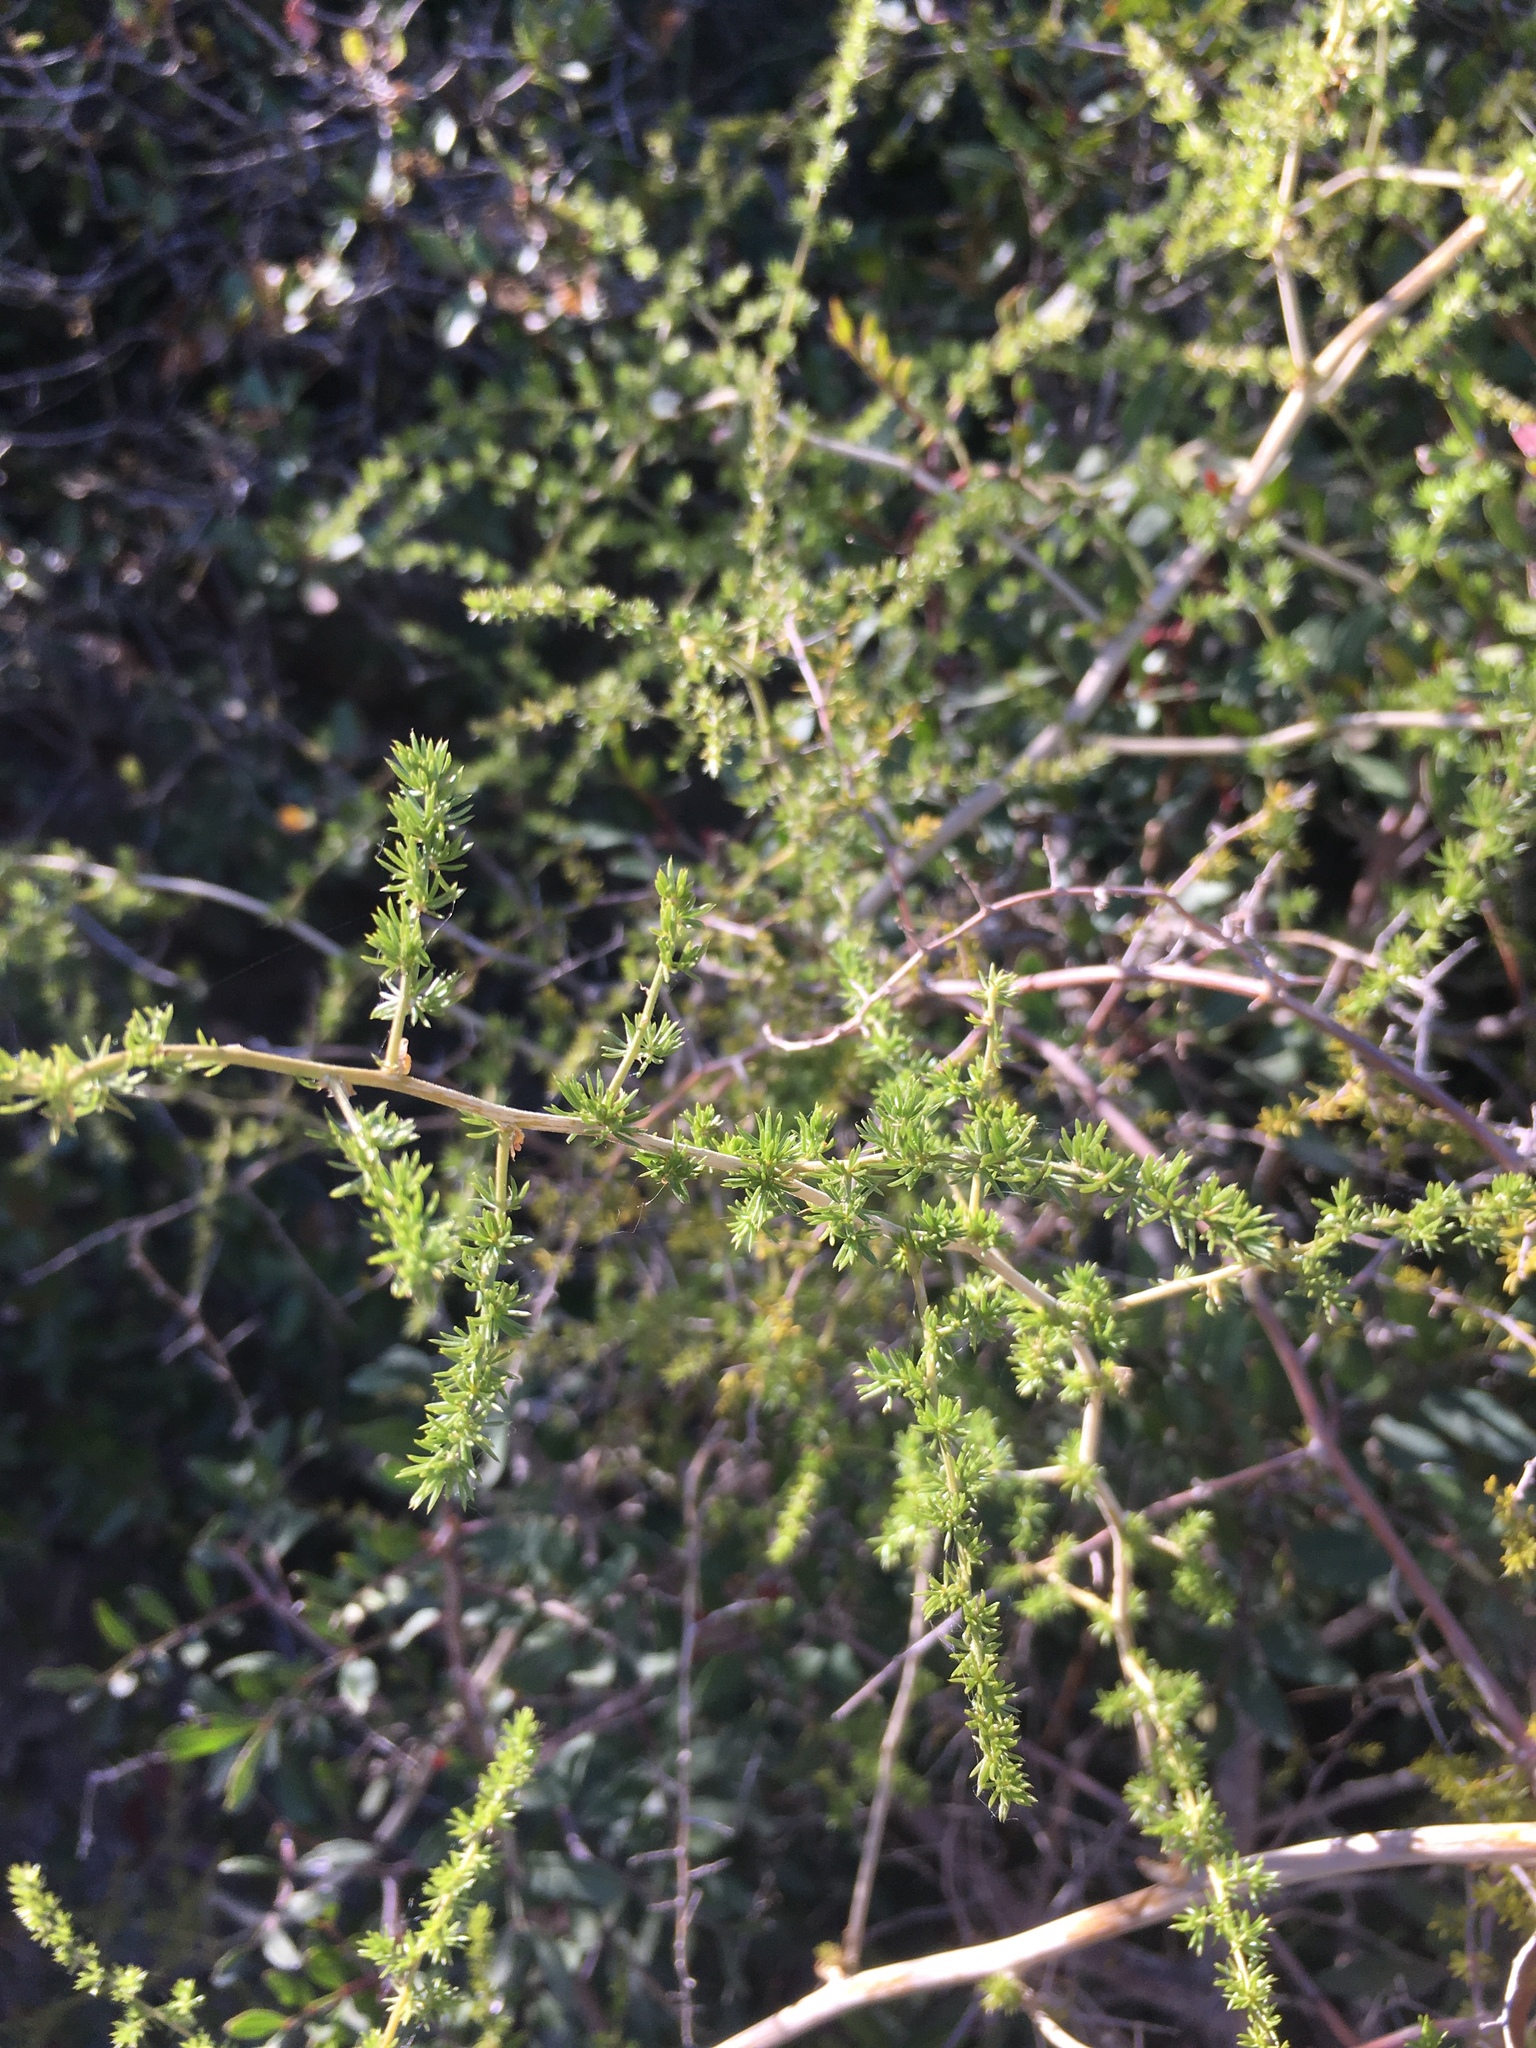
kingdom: Plantae
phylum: Tracheophyta
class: Liliopsida
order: Asparagales
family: Asparagaceae
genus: Asparagus
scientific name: Asparagus acutifolius
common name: Wild asparagus
